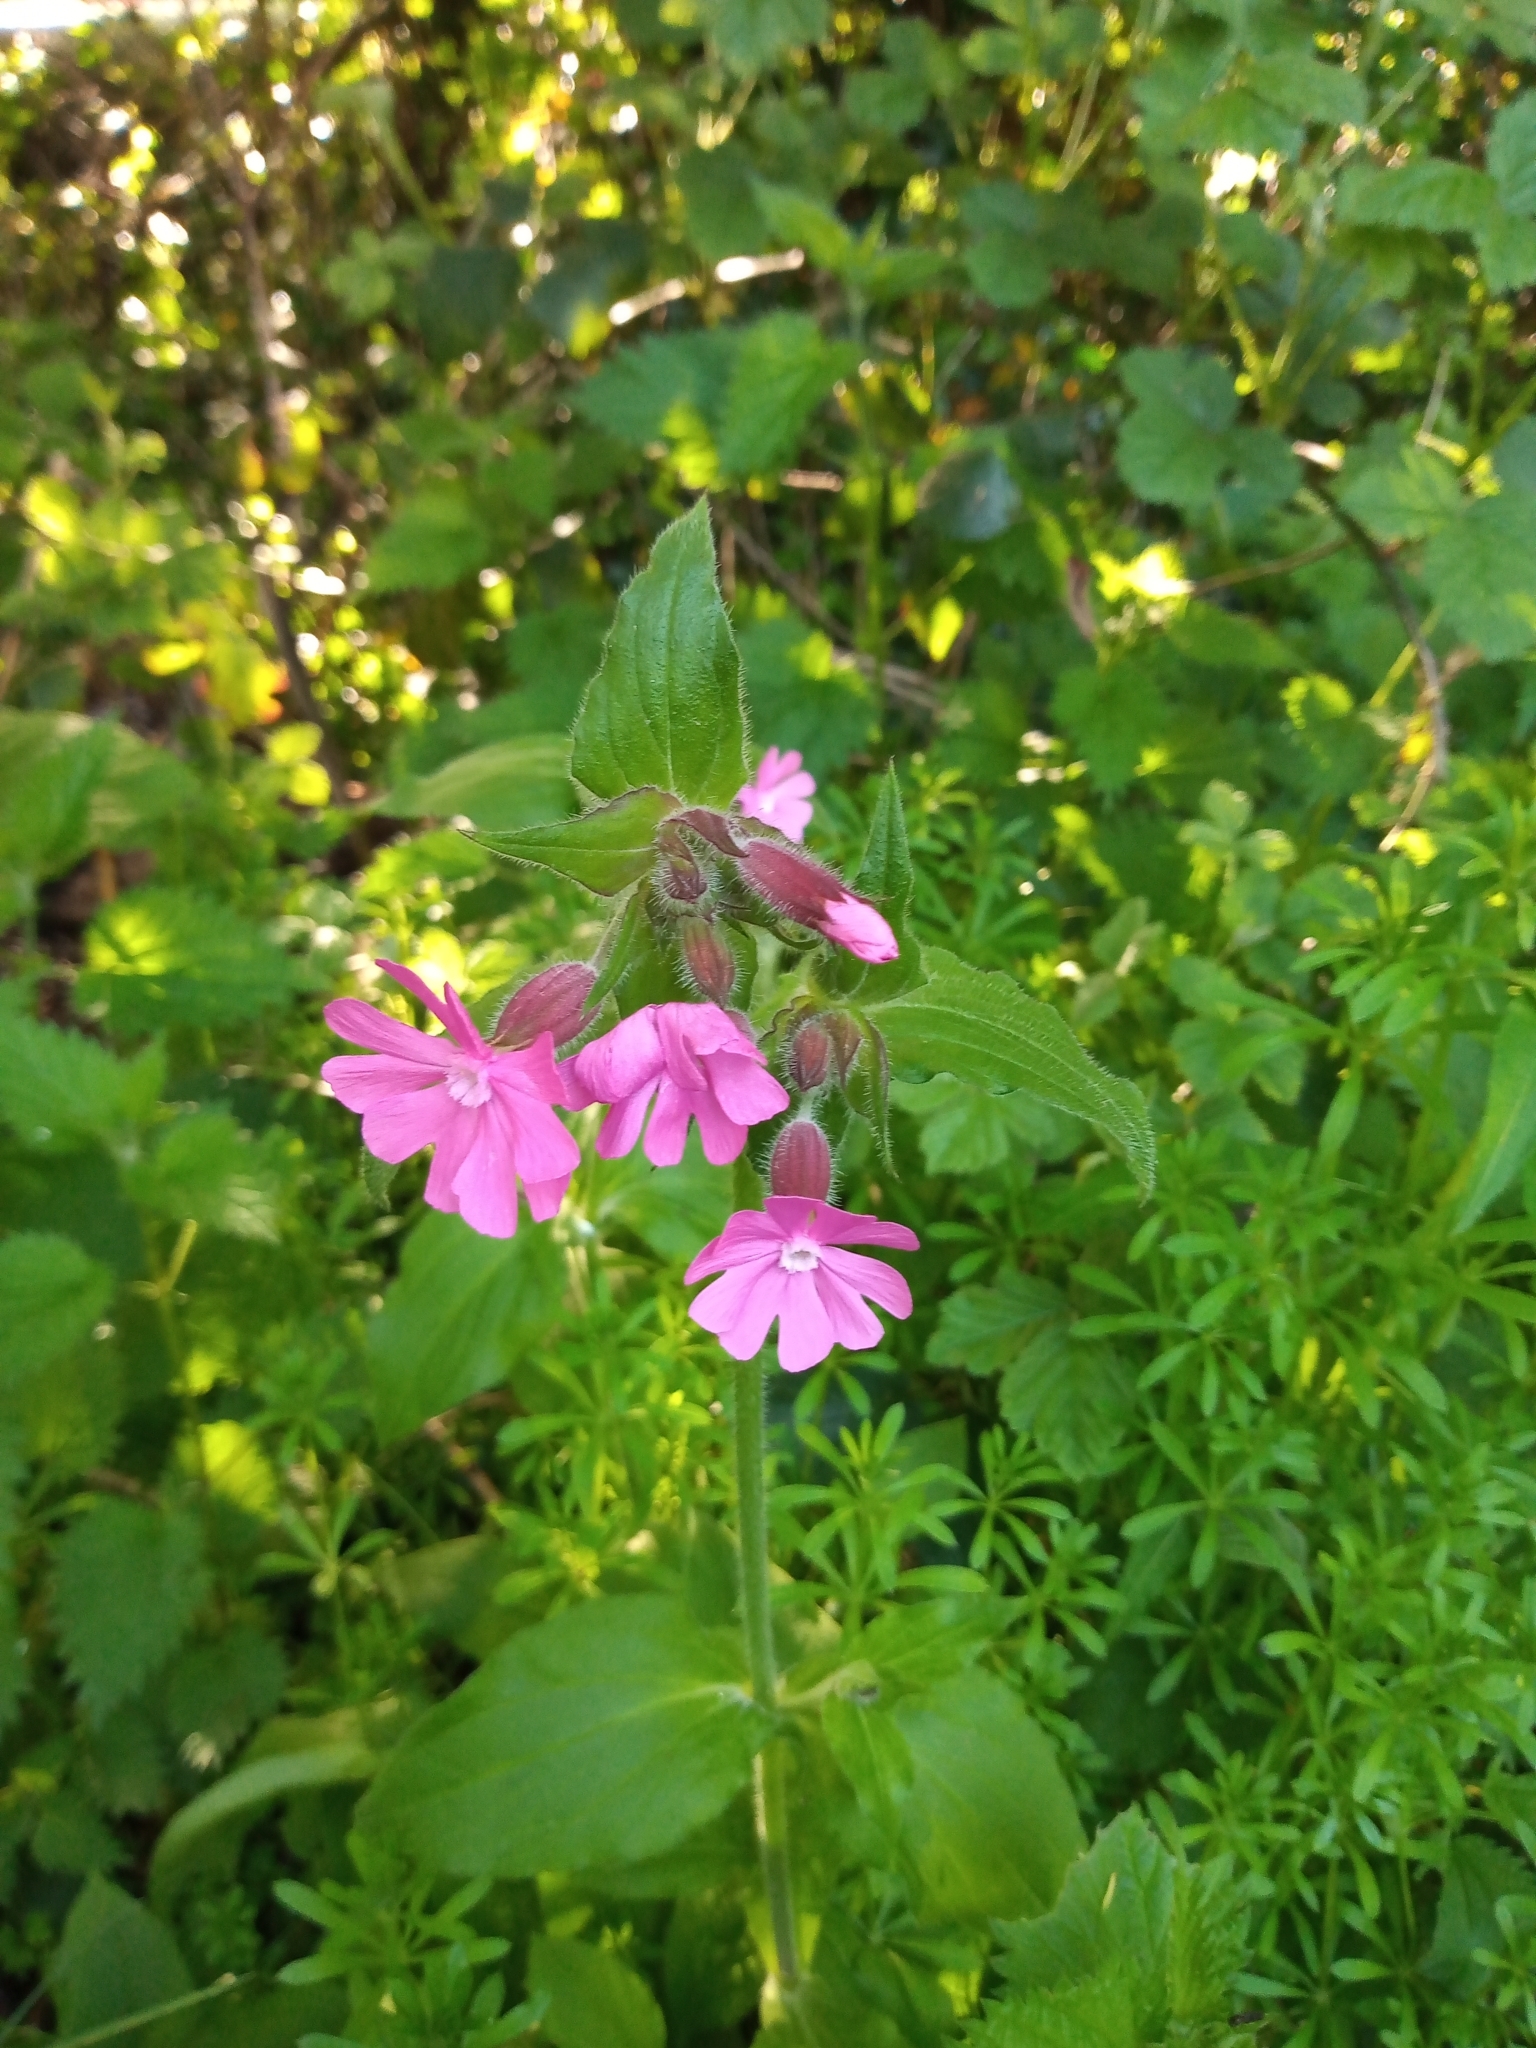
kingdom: Plantae
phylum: Tracheophyta
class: Magnoliopsida
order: Caryophyllales
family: Caryophyllaceae
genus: Silene
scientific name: Silene dioica
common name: Red campion
